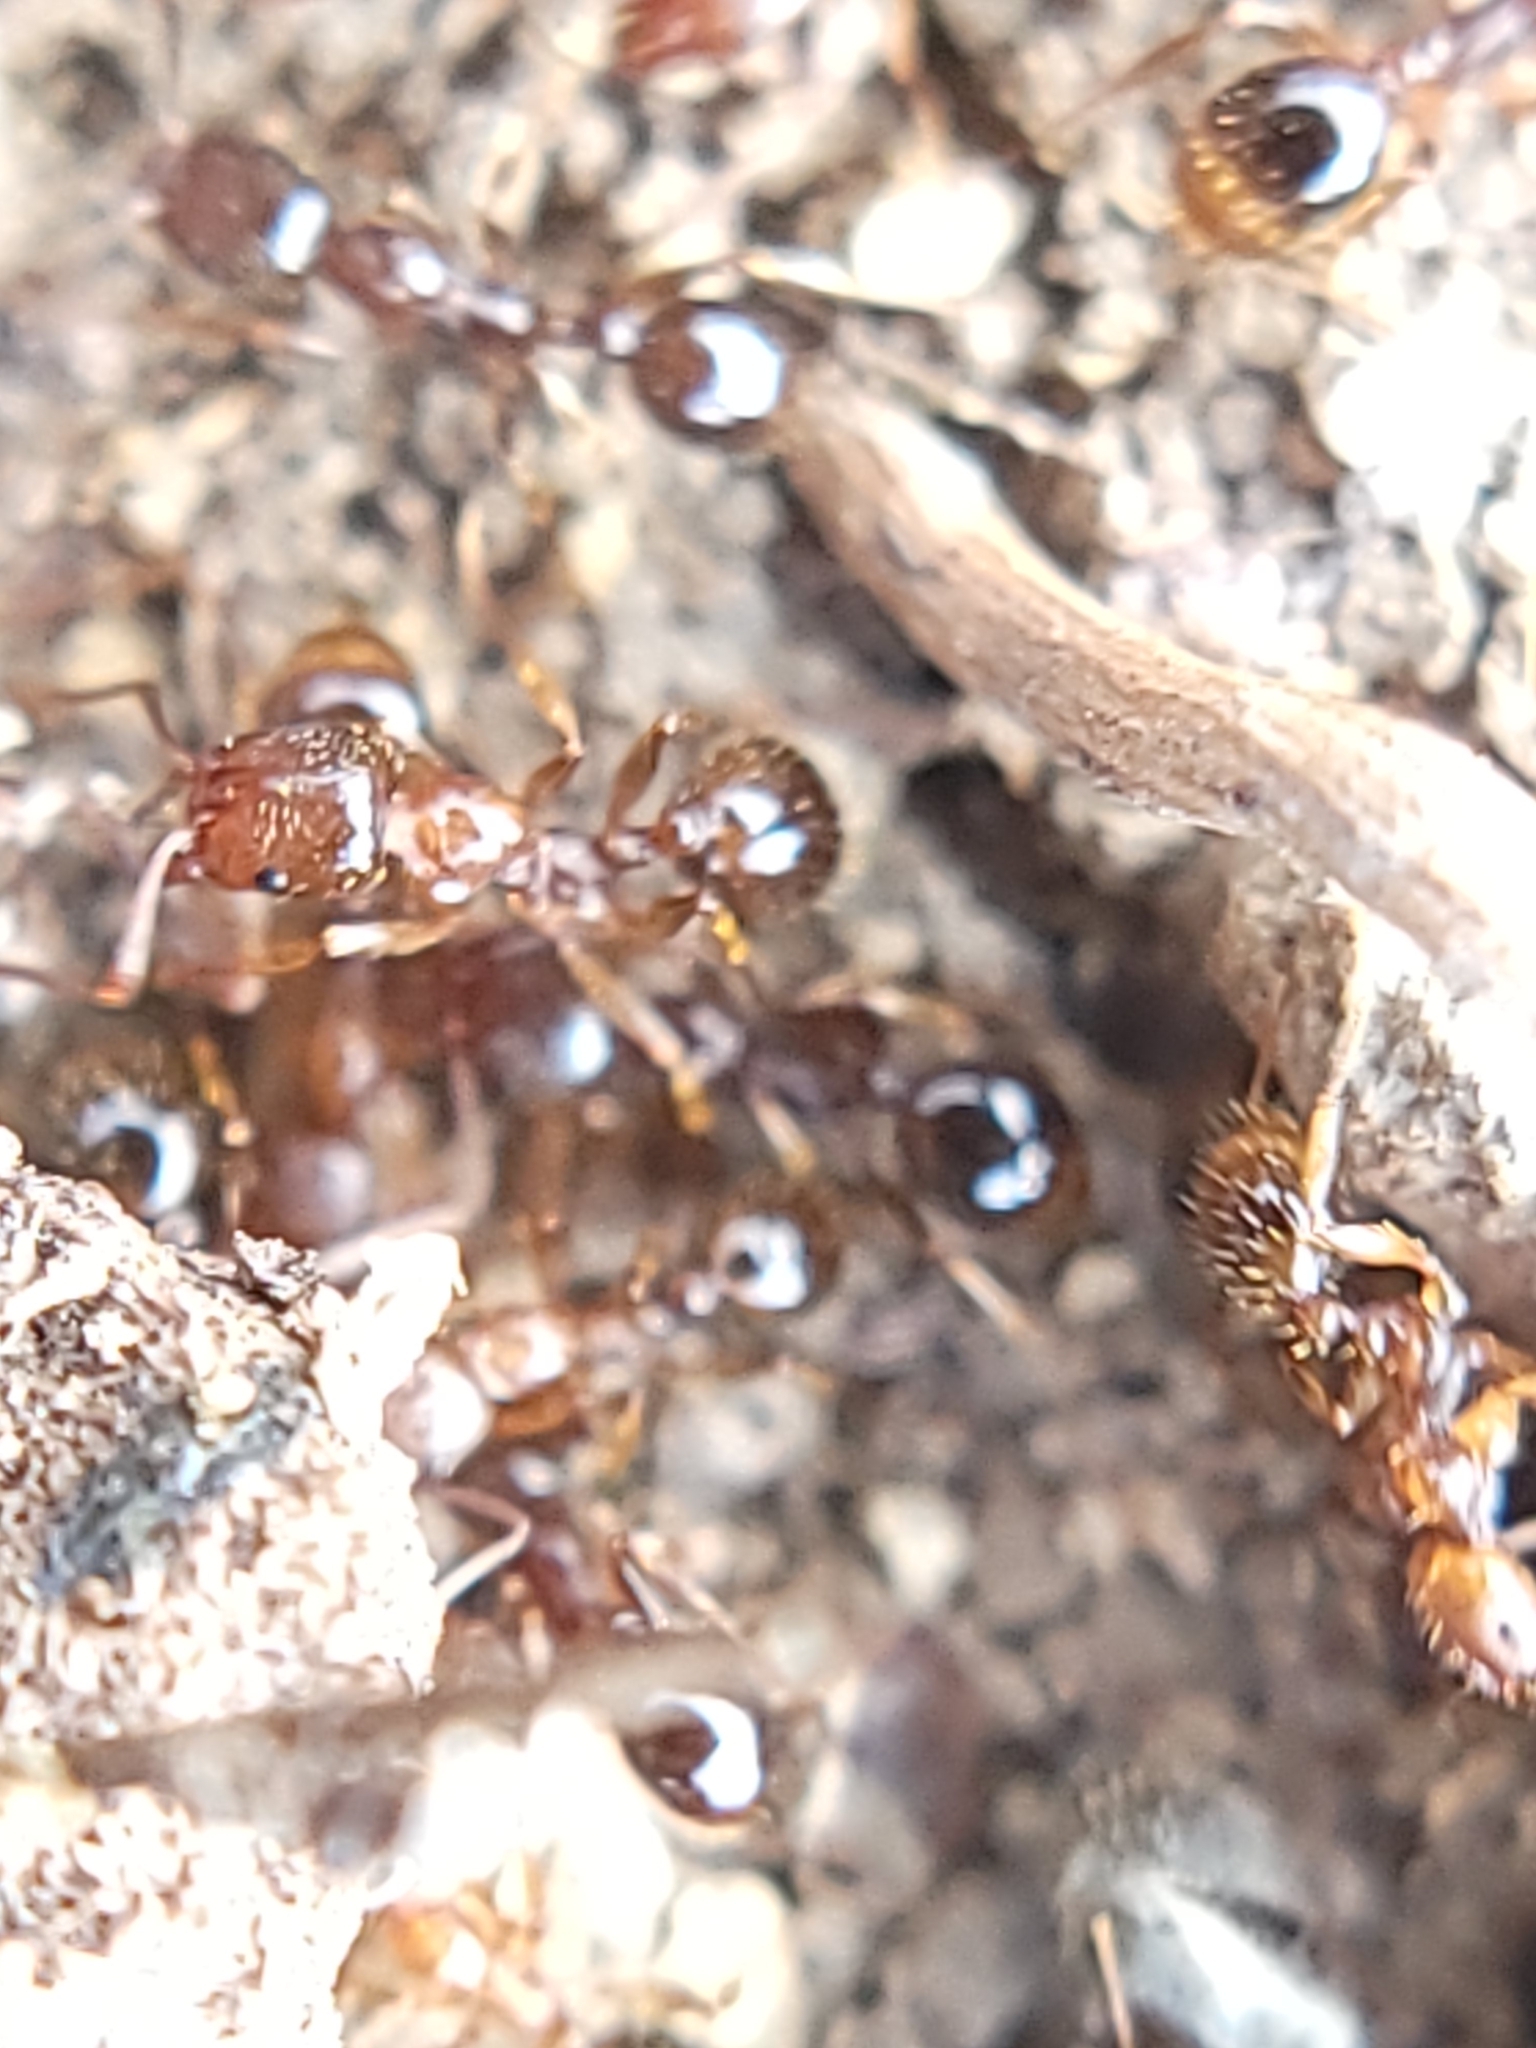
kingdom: Animalia
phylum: Arthropoda
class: Insecta
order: Hymenoptera
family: Formicidae
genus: Aphaenogaster
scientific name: Aphaenogaster occidentalis
